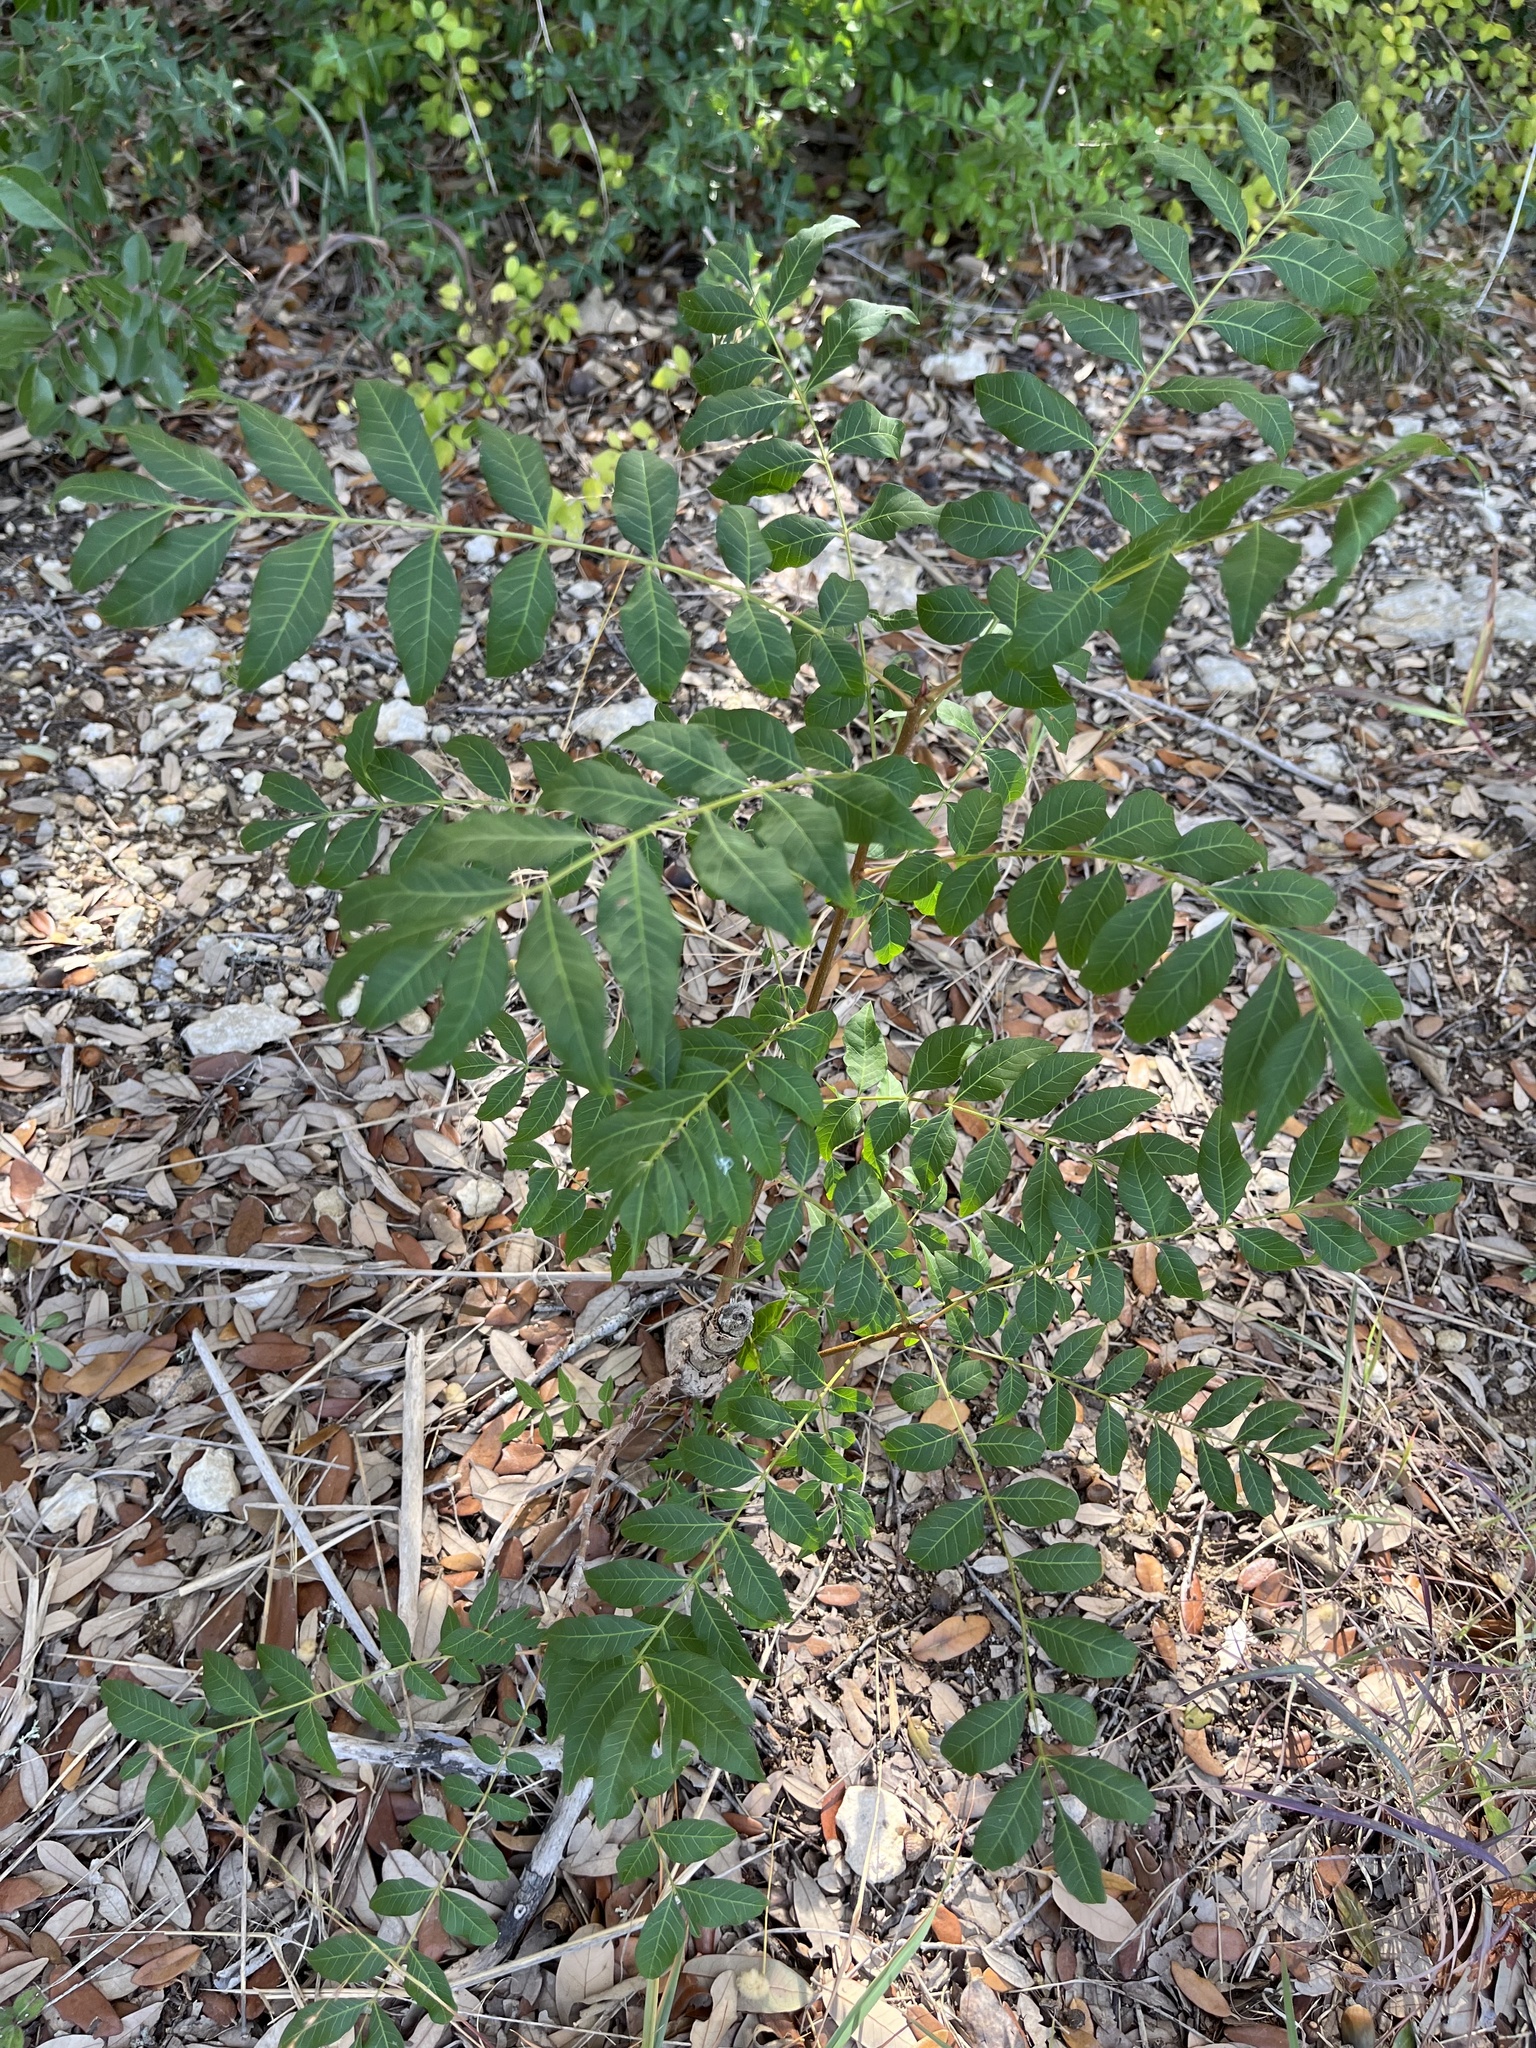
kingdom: Plantae
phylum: Tracheophyta
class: Magnoliopsida
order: Sapindales
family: Anacardiaceae
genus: Pistacia
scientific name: Pistacia chinensis
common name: Chinese pistache
